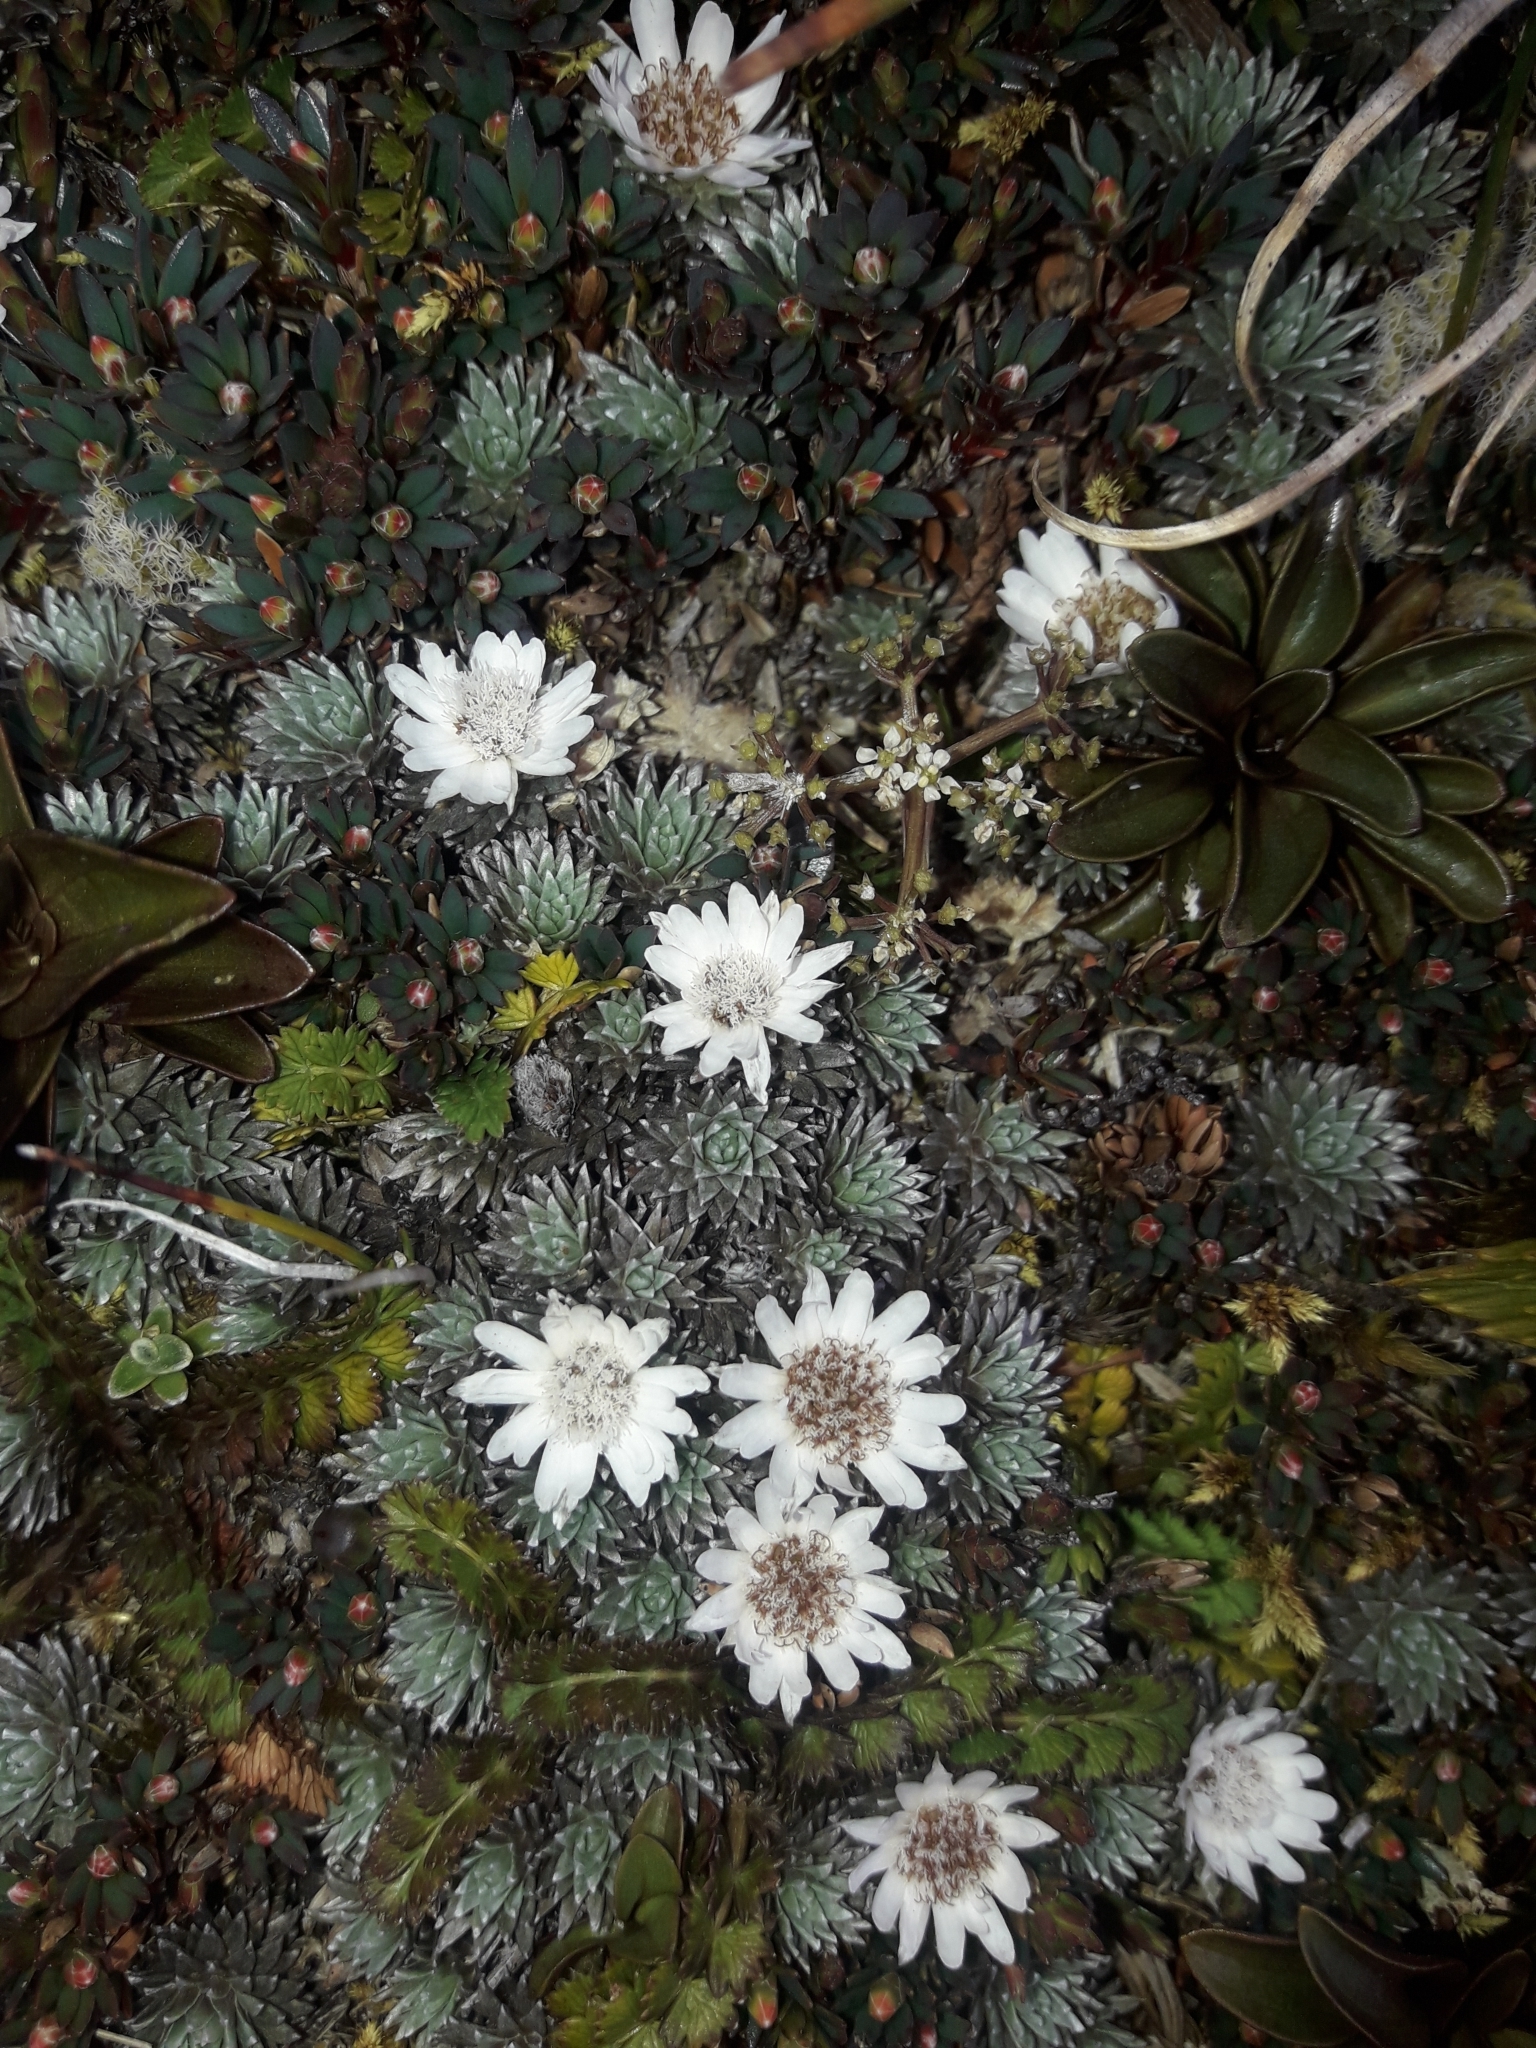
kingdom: Plantae
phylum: Tracheophyta
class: Magnoliopsida
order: Asterales
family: Asteraceae
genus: Raoulia
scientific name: Raoulia grandiflora
